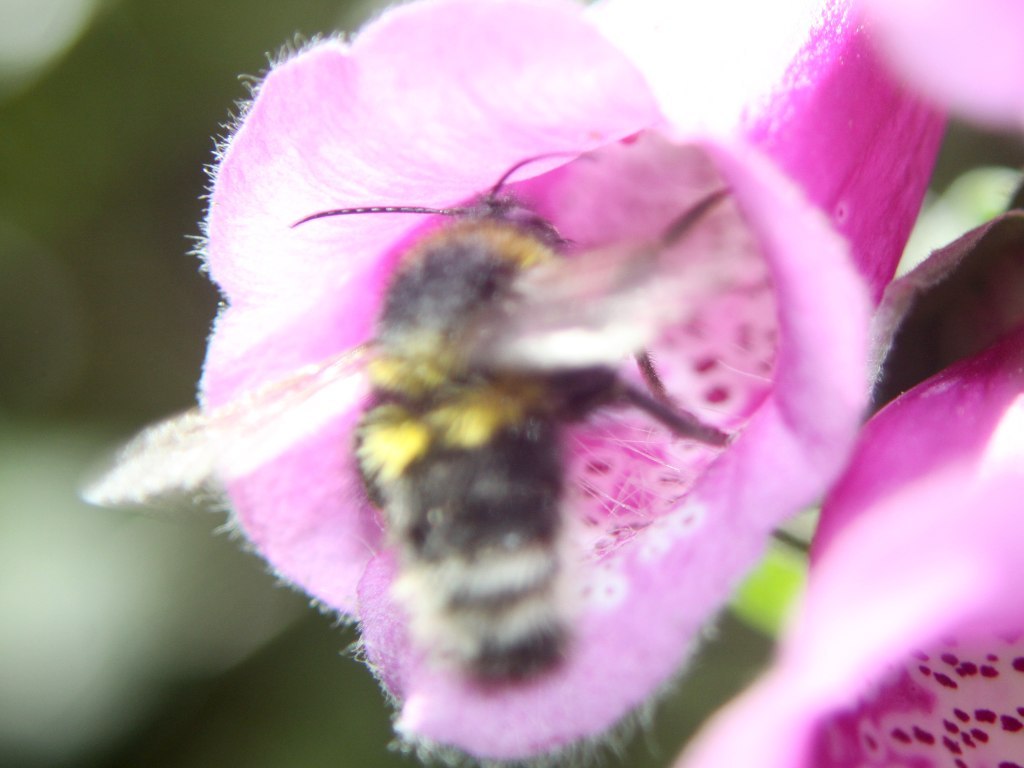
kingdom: Animalia
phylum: Arthropoda
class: Insecta
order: Hymenoptera
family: Apidae
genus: Bombus
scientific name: Bombus ruderatus
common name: Large garden bumblebee
